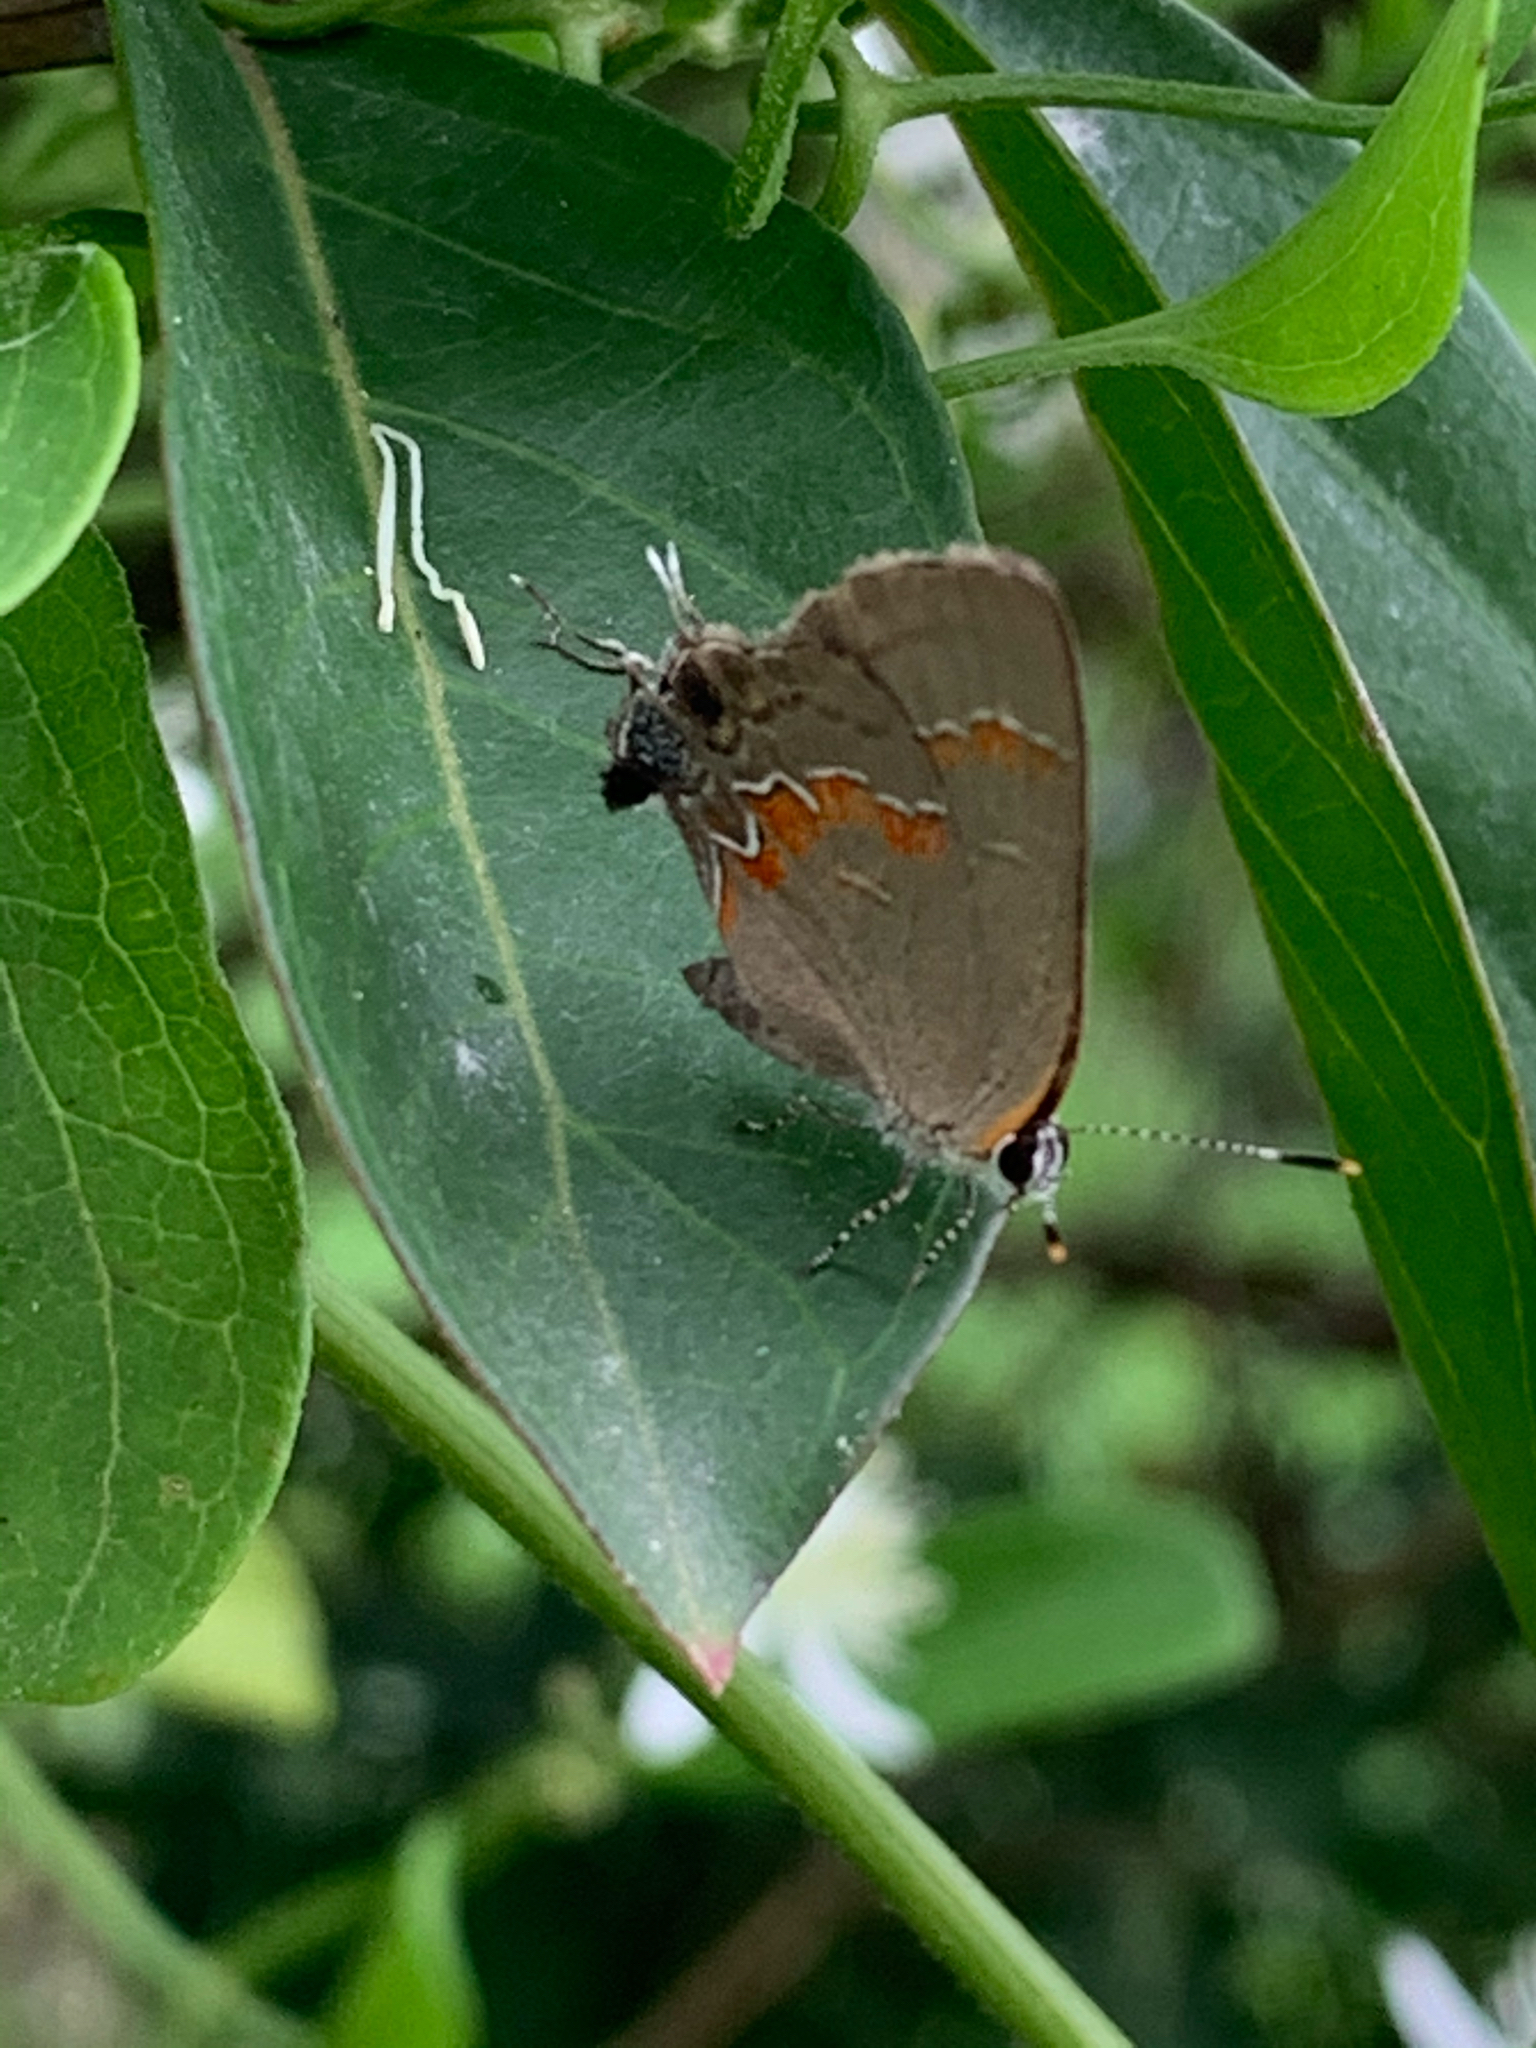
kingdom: Animalia
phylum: Arthropoda
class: Insecta
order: Lepidoptera
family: Lycaenidae
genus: Calycopis
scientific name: Calycopis cecrops
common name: Red-banded hairstreak
